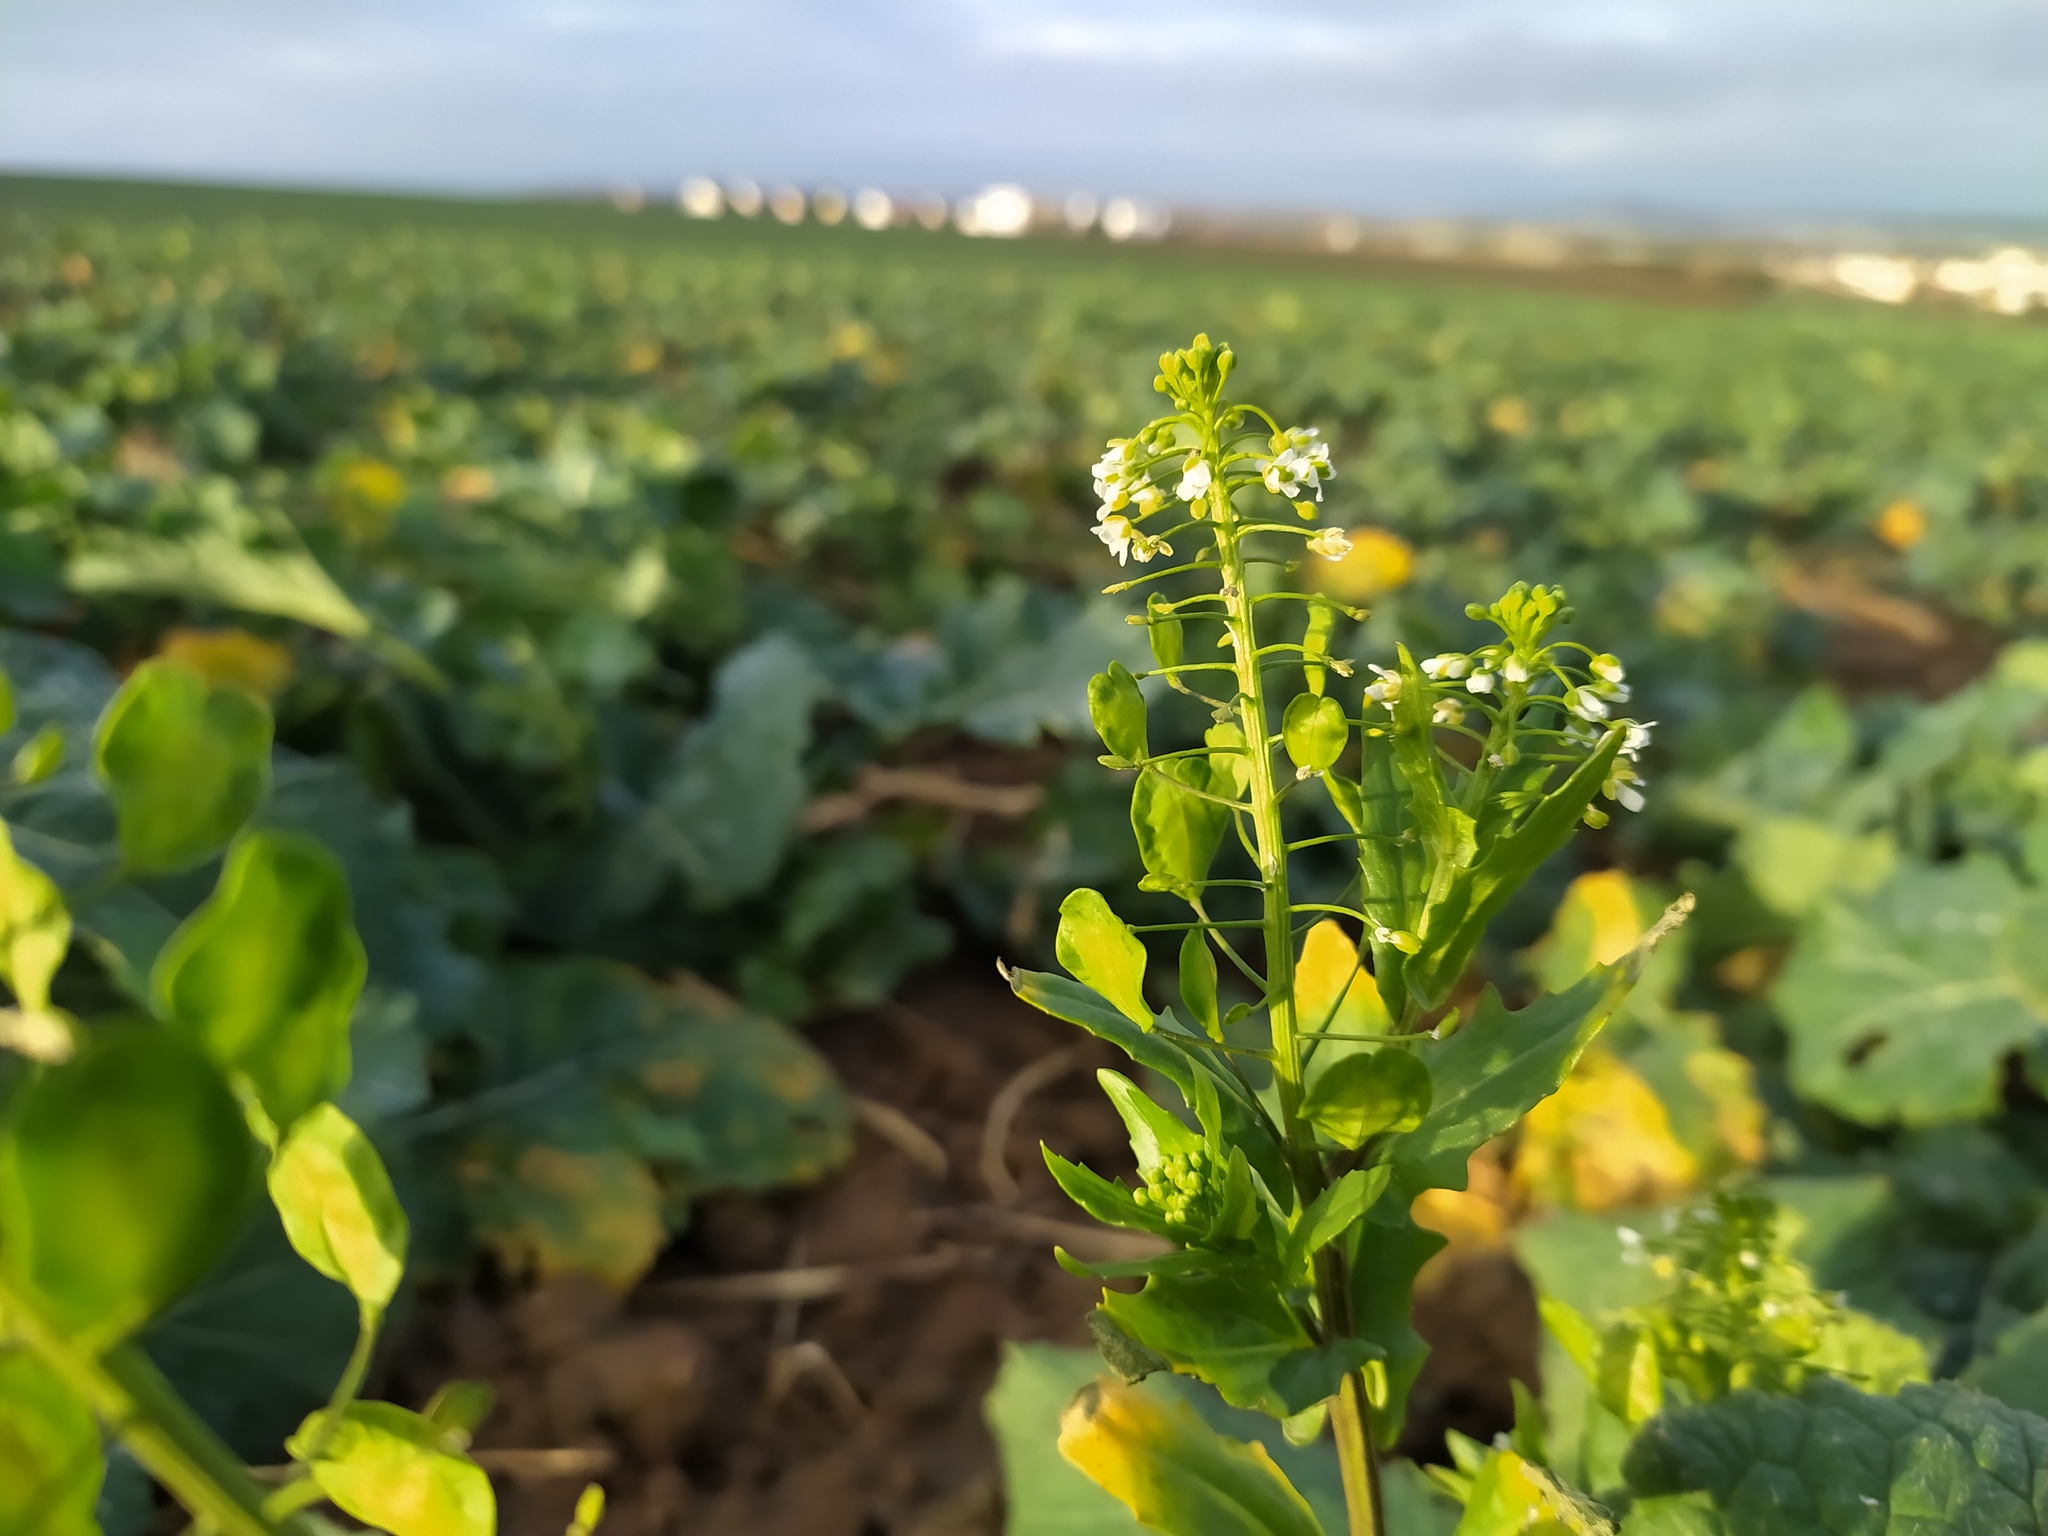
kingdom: Plantae
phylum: Tracheophyta
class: Magnoliopsida
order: Brassicales
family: Brassicaceae
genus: Thlaspi
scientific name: Thlaspi arvense
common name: Field pennycress
